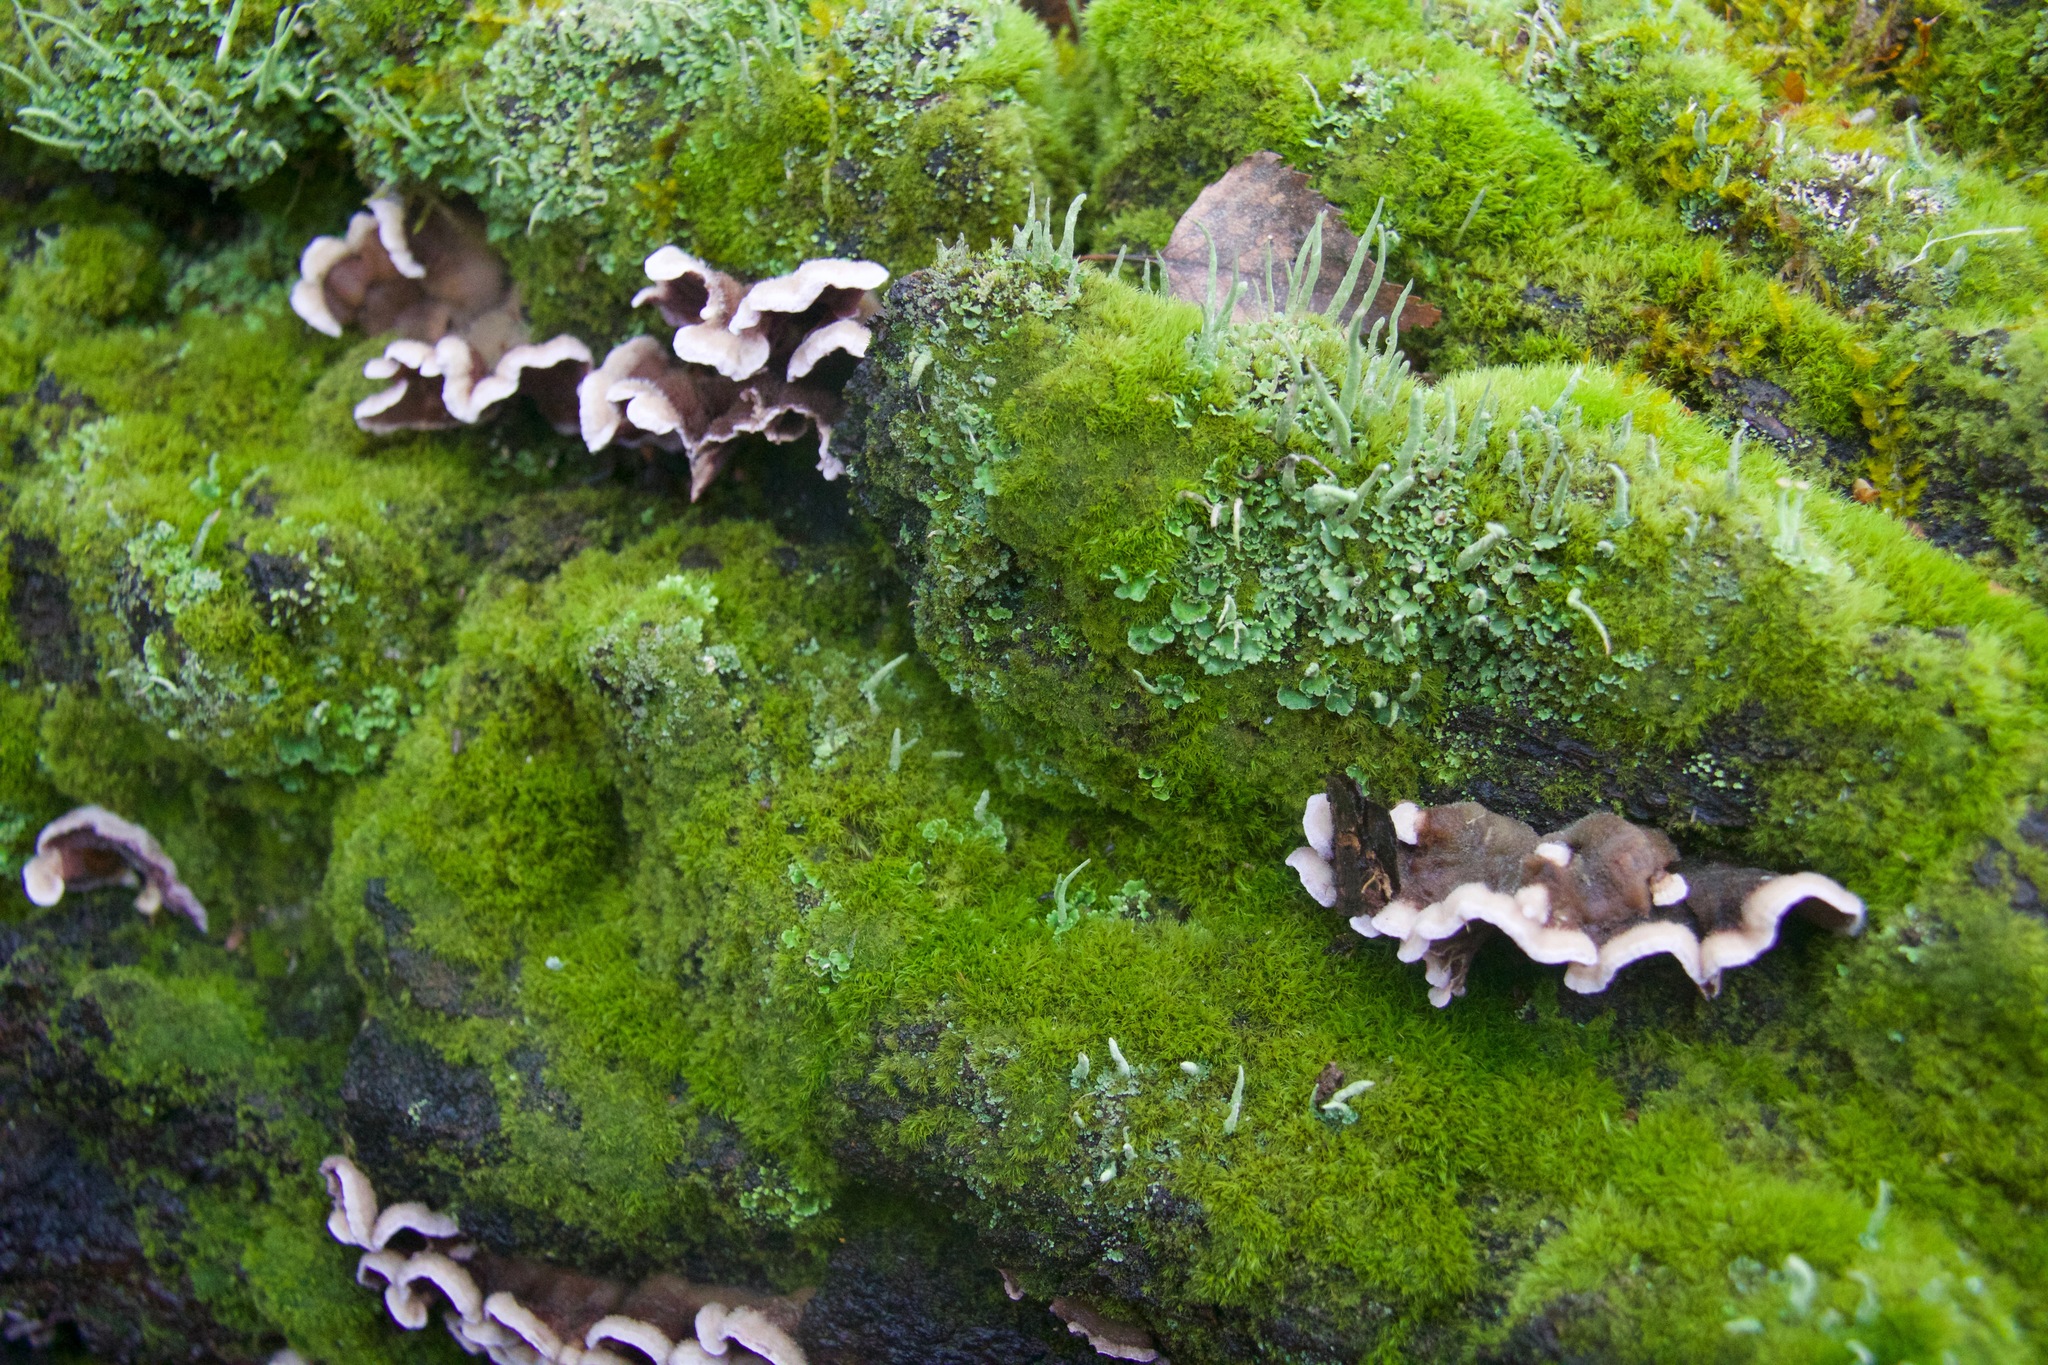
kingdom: Fungi
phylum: Basidiomycota
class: Agaricomycetes
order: Agaricales
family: Cyphellaceae
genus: Chondrostereum
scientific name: Chondrostereum purpureum
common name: Silver leaf disease
